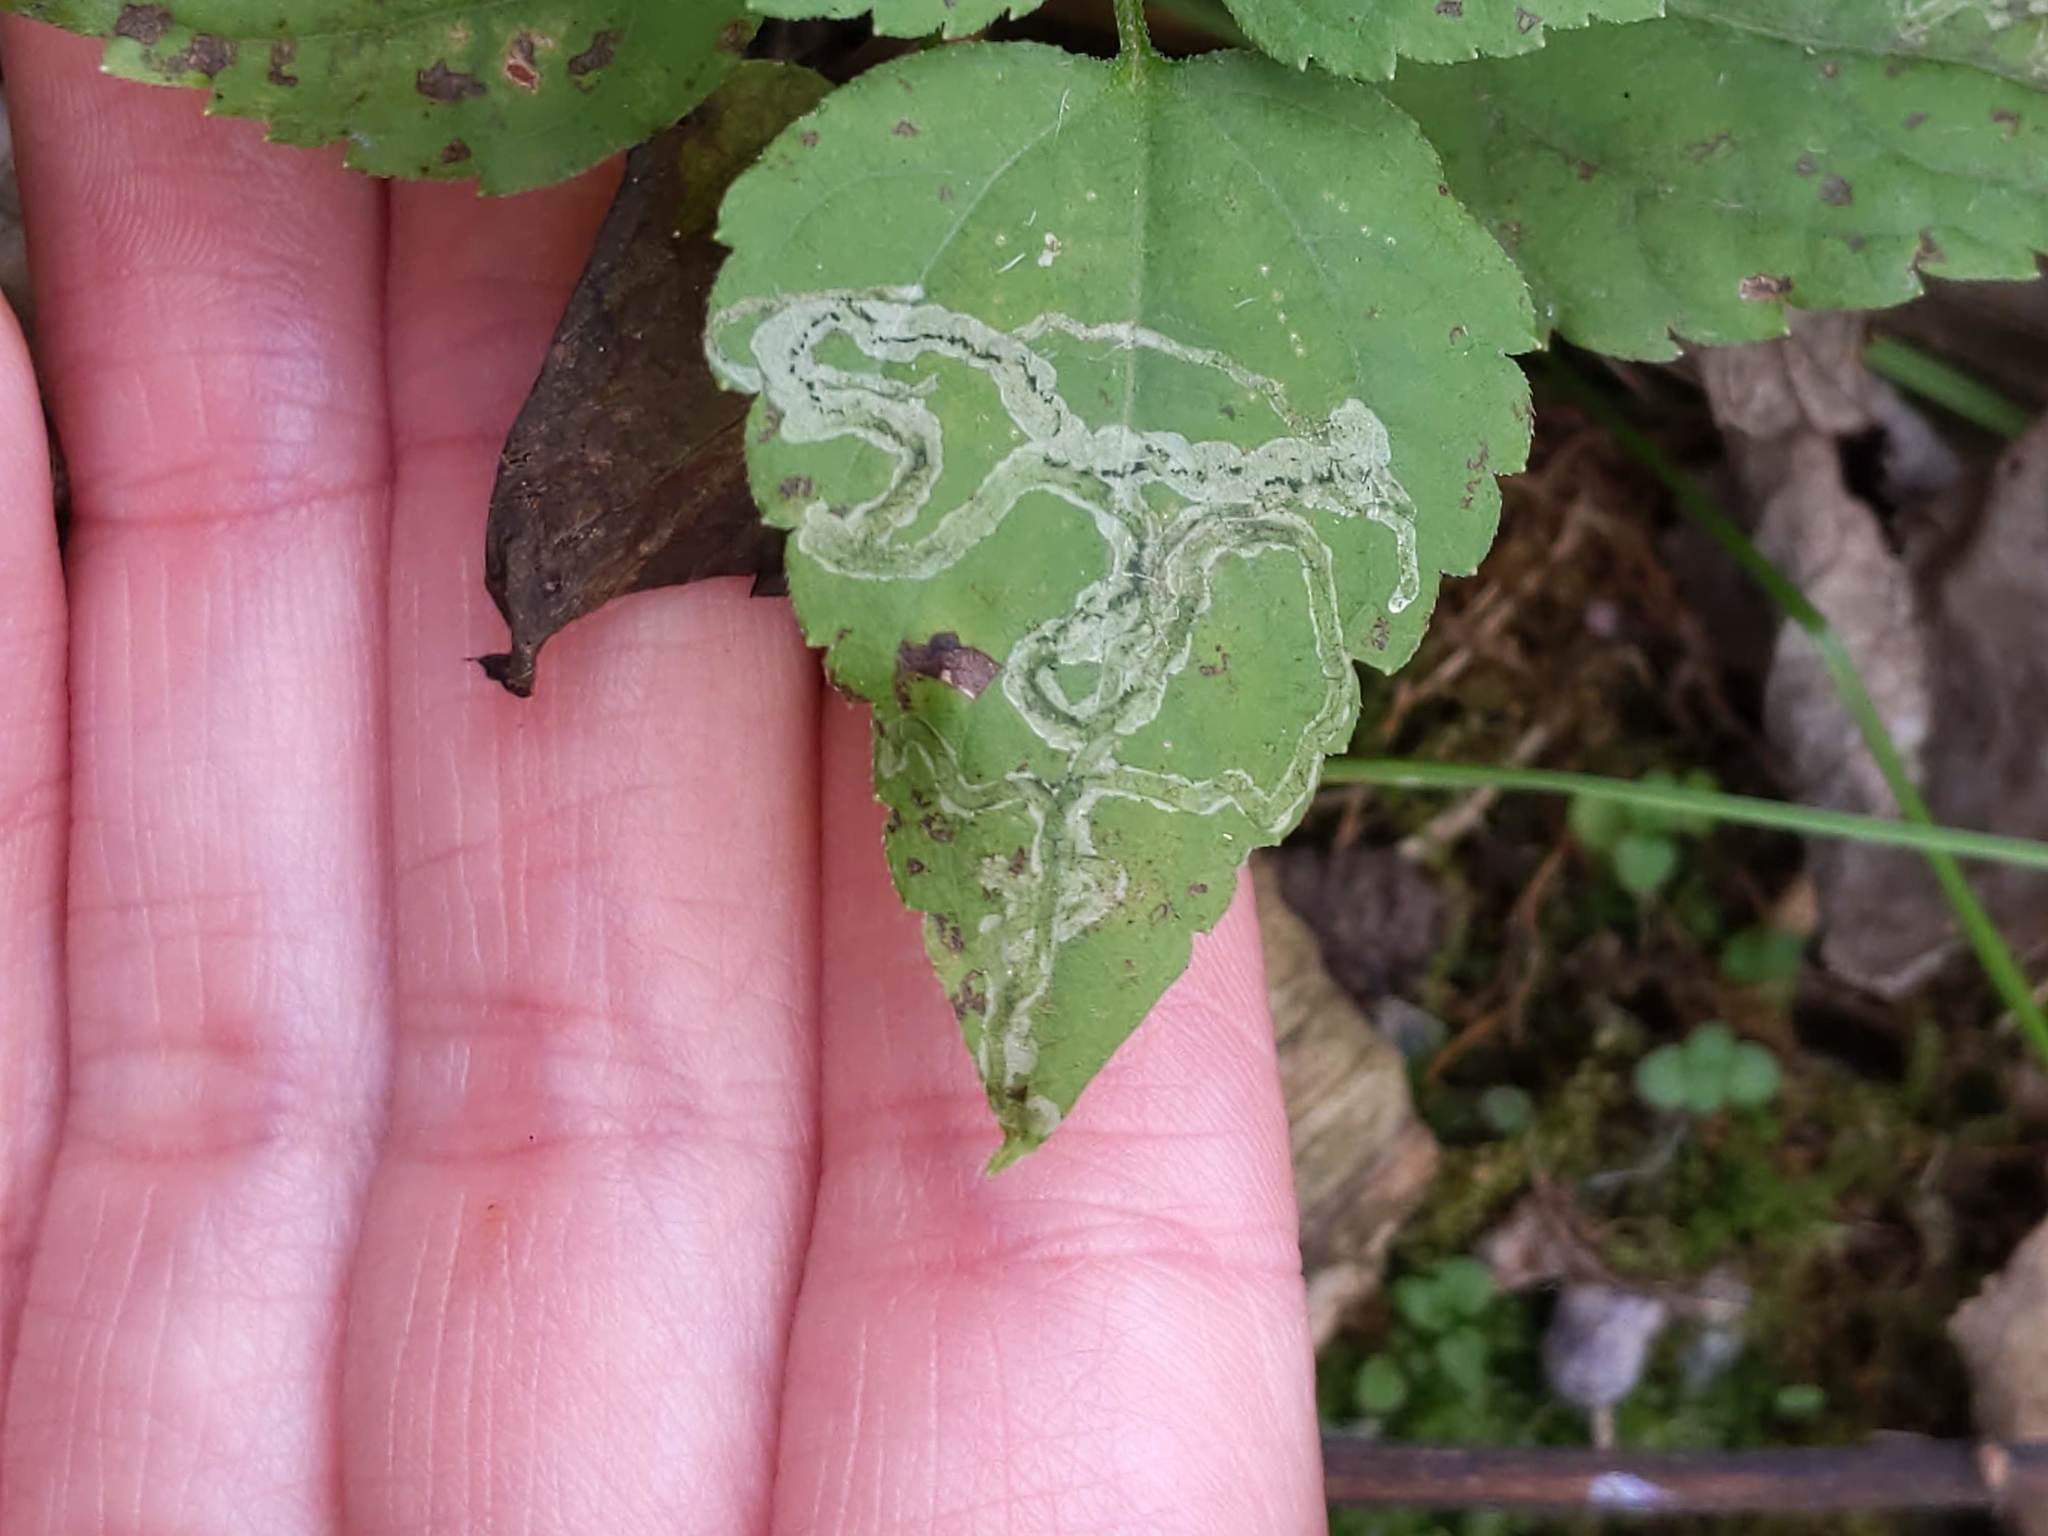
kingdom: Animalia
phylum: Arthropoda
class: Insecta
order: Diptera
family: Agromyzidae
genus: Liriomyza
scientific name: Liriomyza
